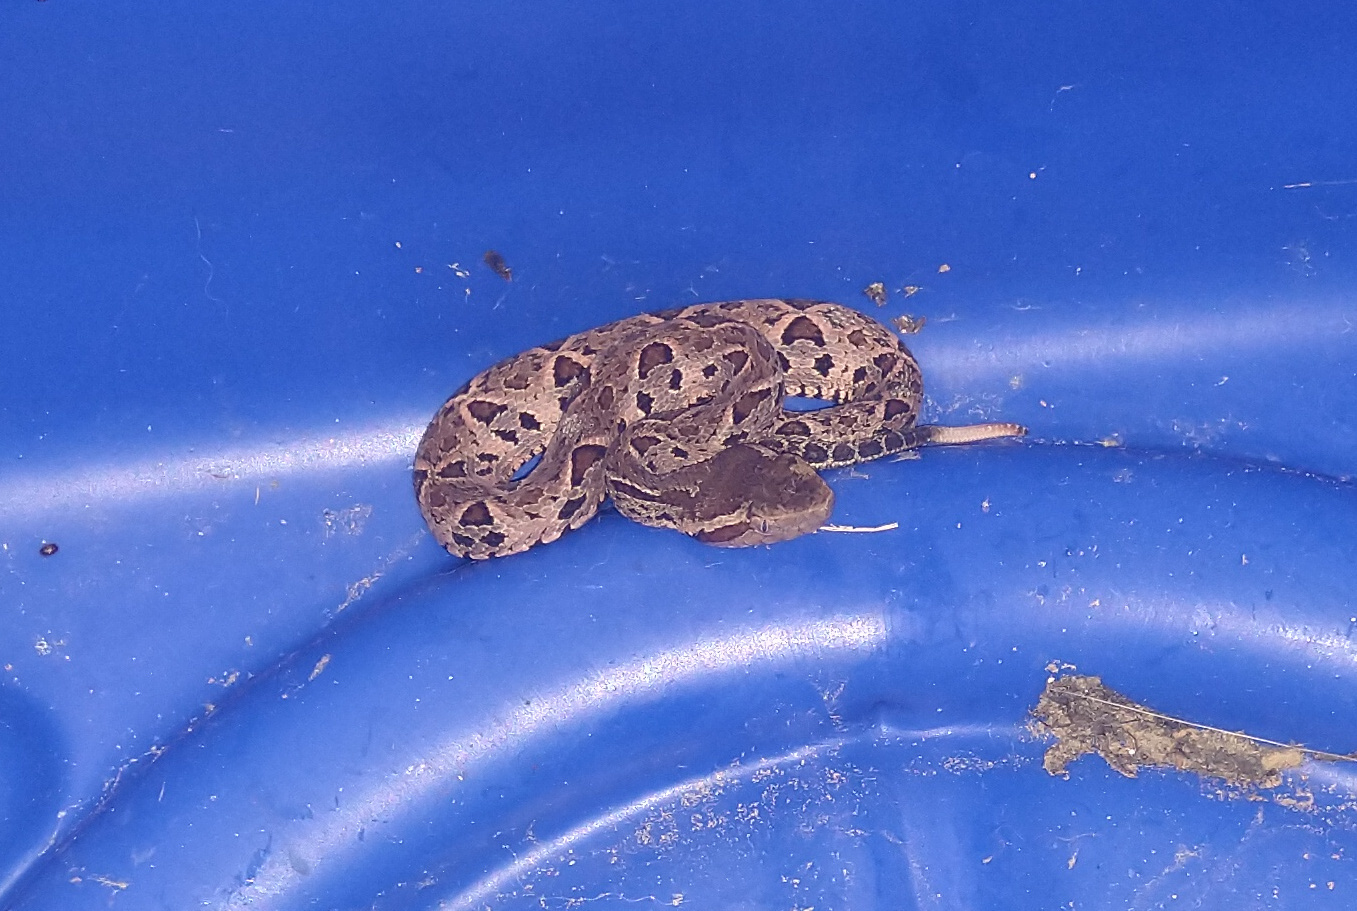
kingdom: Animalia
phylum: Chordata
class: Squamata
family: Viperidae
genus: Bothrops
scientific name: Bothrops jararacussu
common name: Jararacussu
